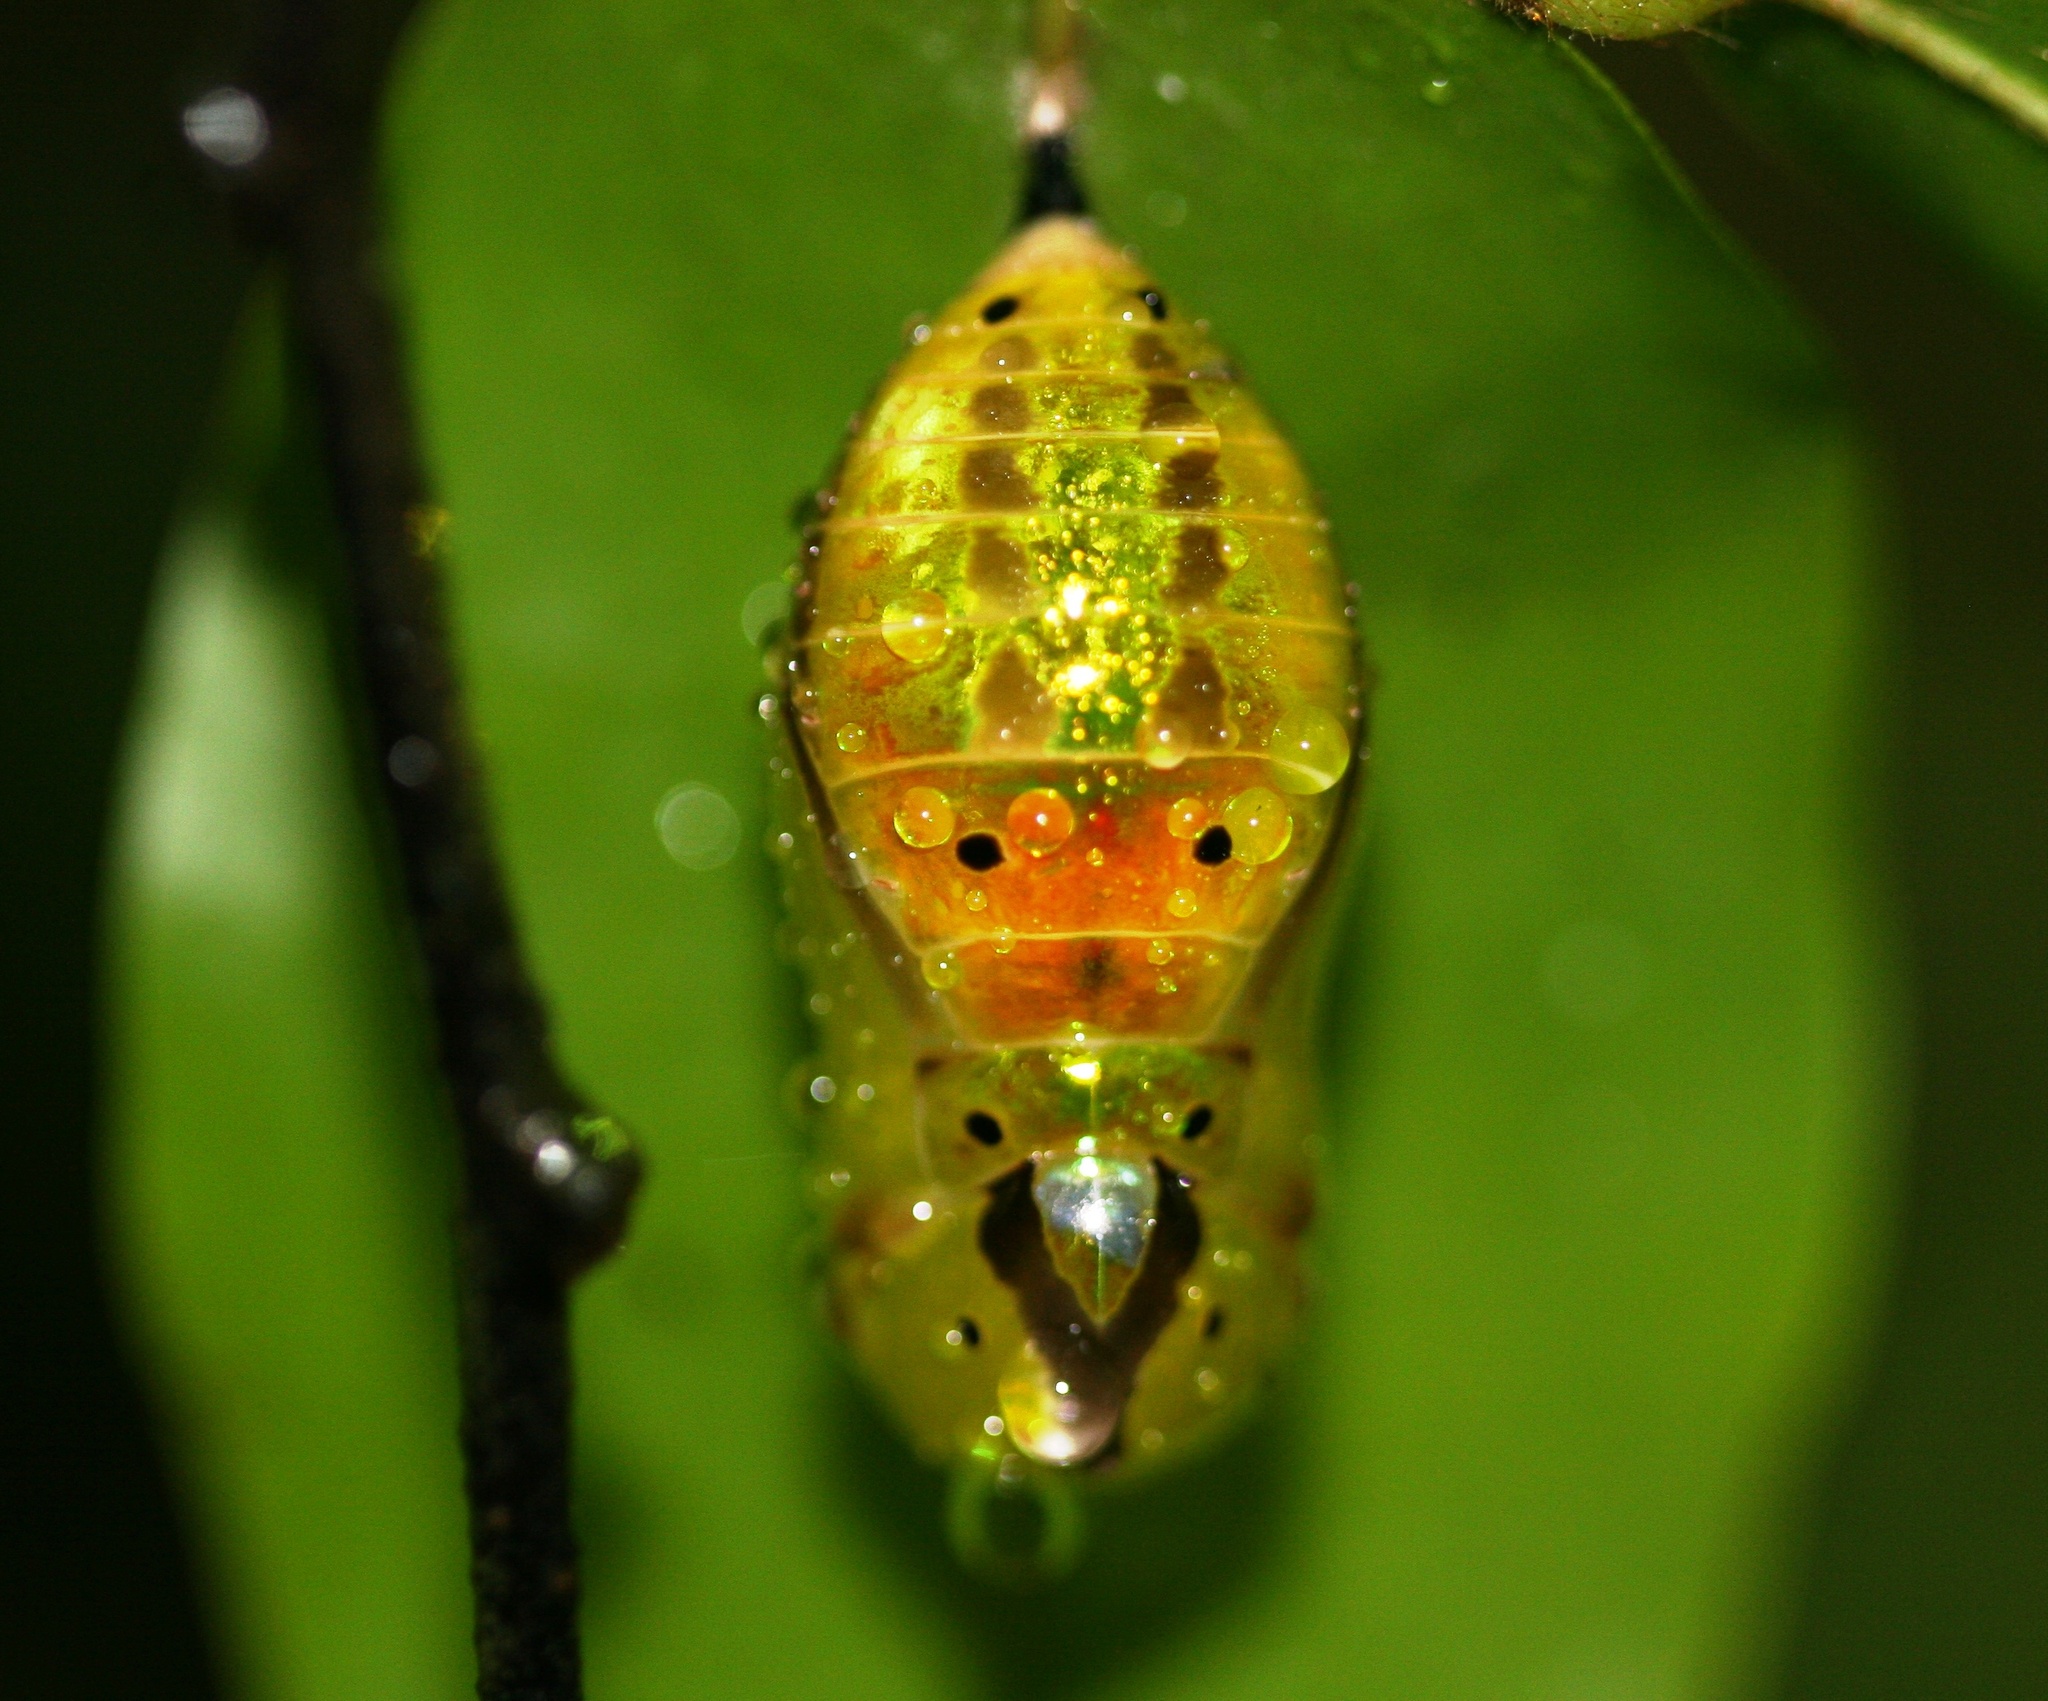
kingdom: Animalia
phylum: Arthropoda
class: Insecta
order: Lepidoptera
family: Nymphalidae
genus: Euploea
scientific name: Euploea eunice
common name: Blue-banded king crow butterfly
